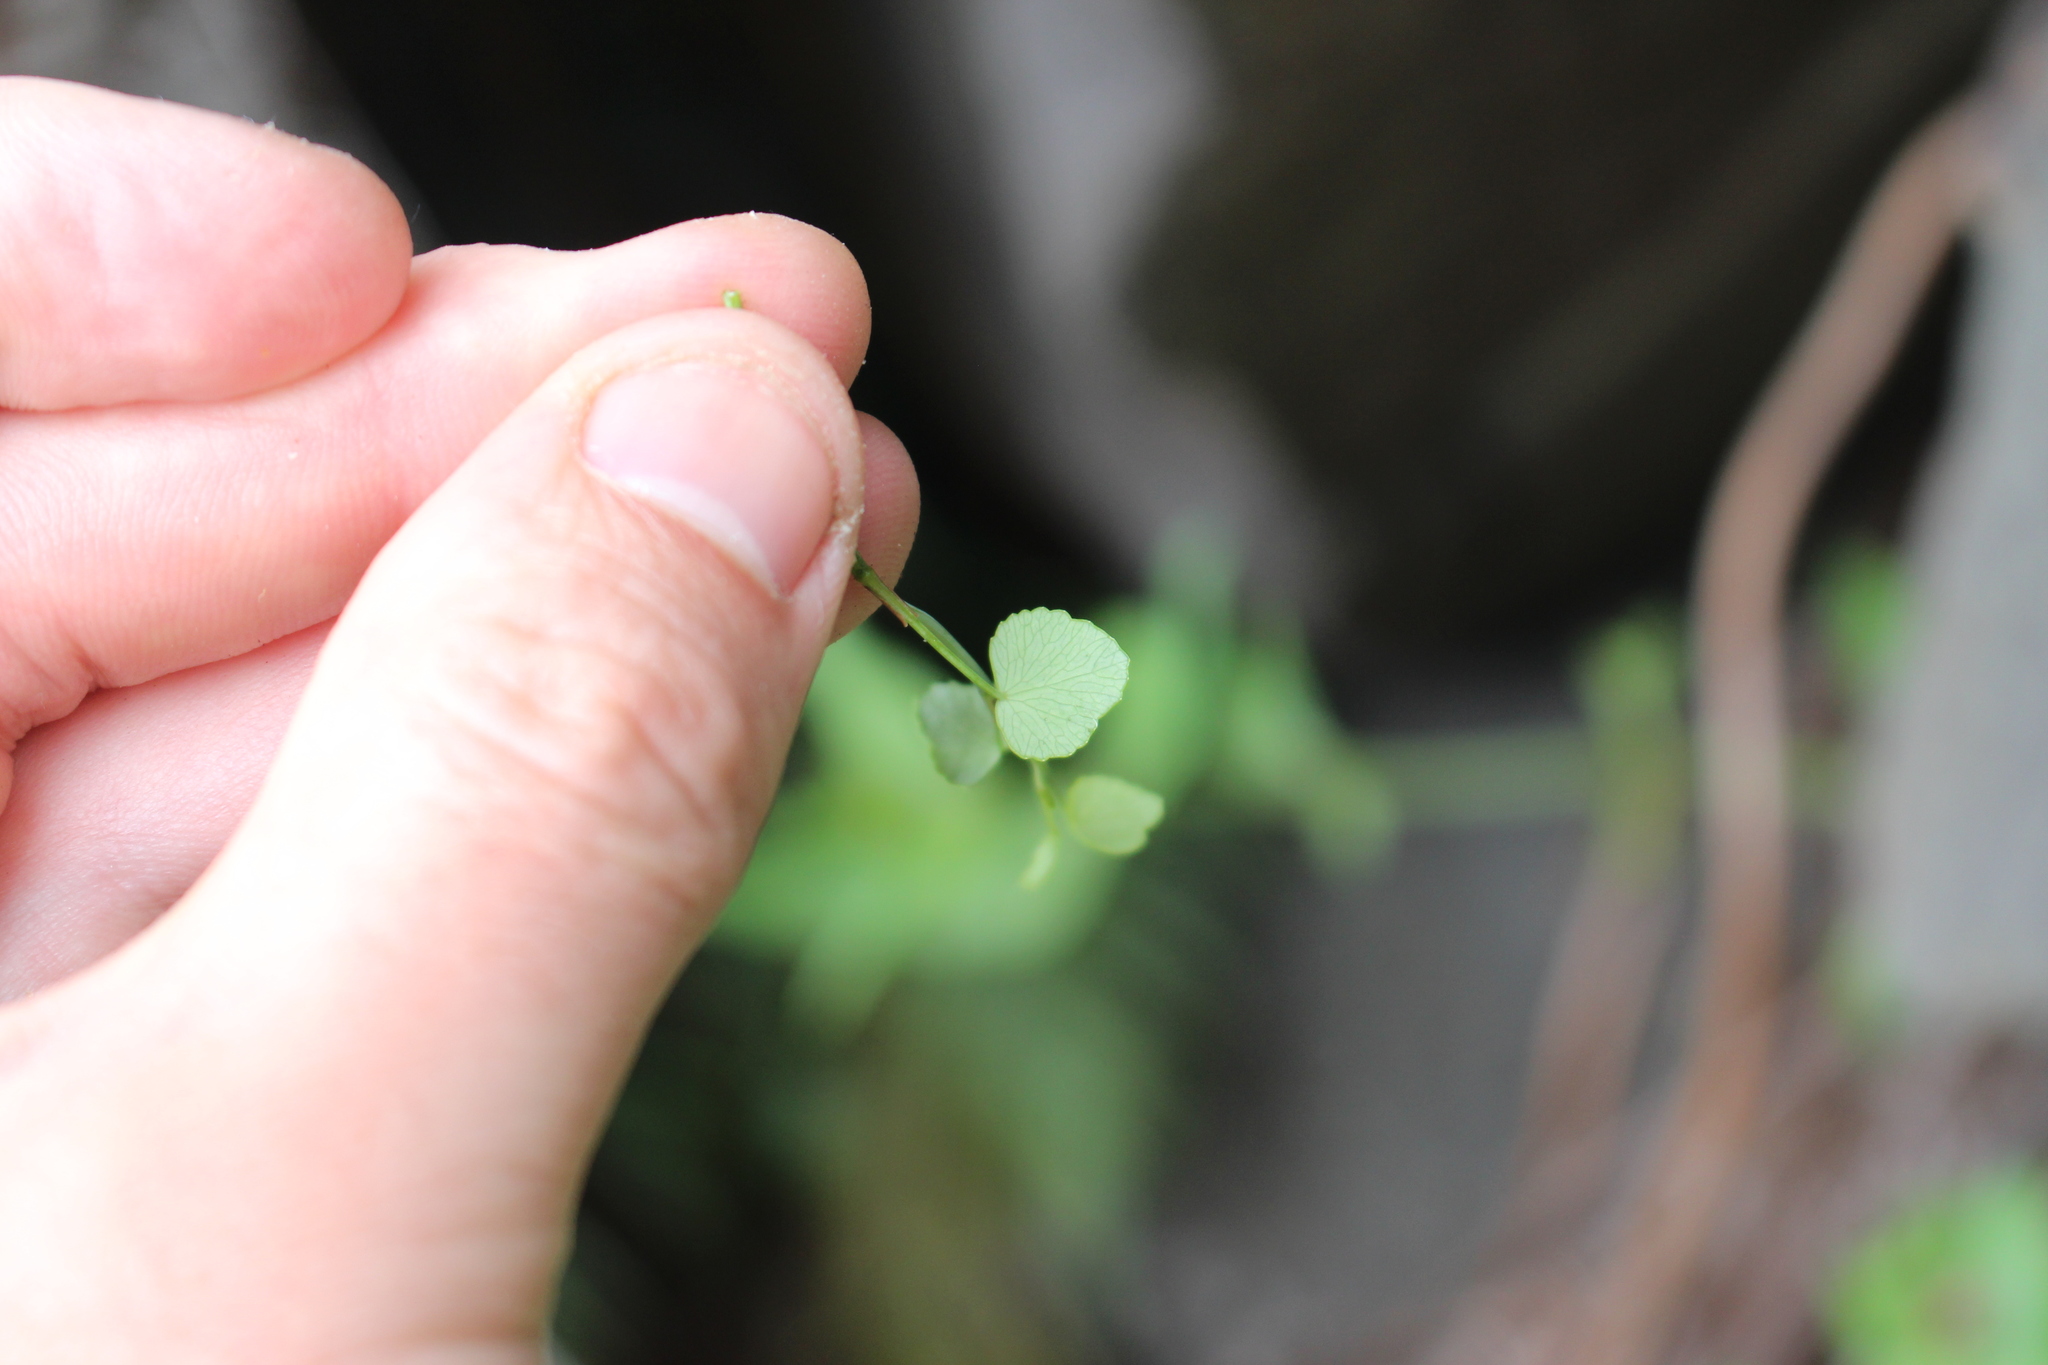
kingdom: Plantae
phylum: Tracheophyta
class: Magnoliopsida
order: Apiales
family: Apiaceae
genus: Scandia
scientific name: Scandia geniculata
